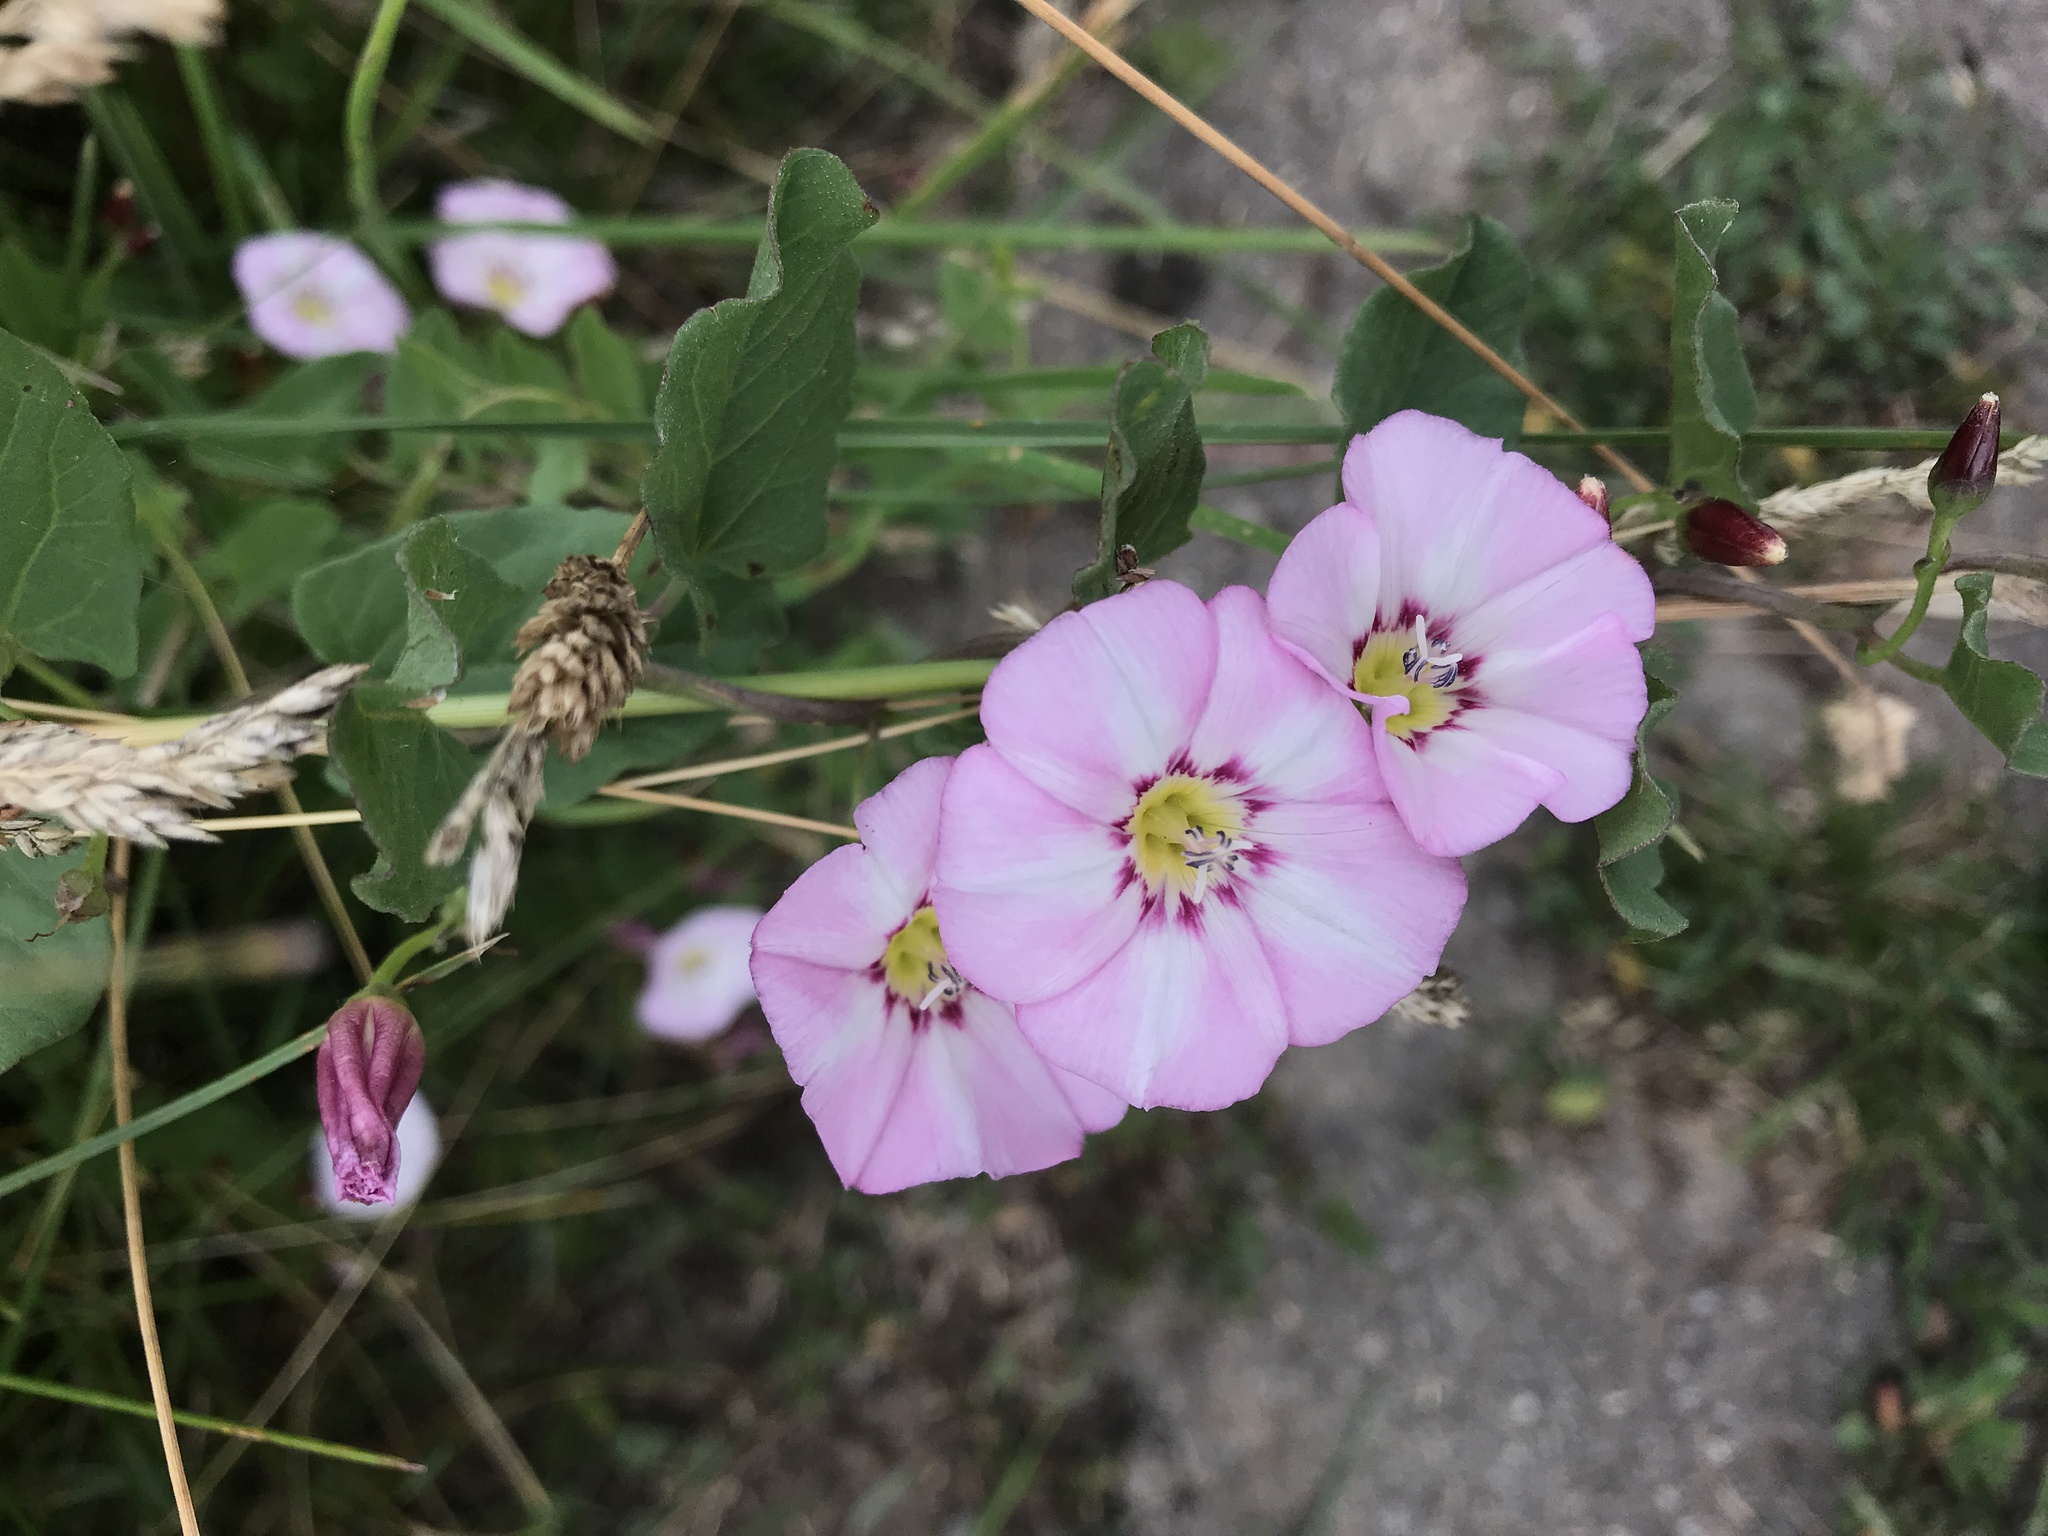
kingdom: Plantae
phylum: Tracheophyta
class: Magnoliopsida
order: Solanales
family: Convolvulaceae
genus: Convolvulus
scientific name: Convolvulus arvensis
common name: Field bindweed
